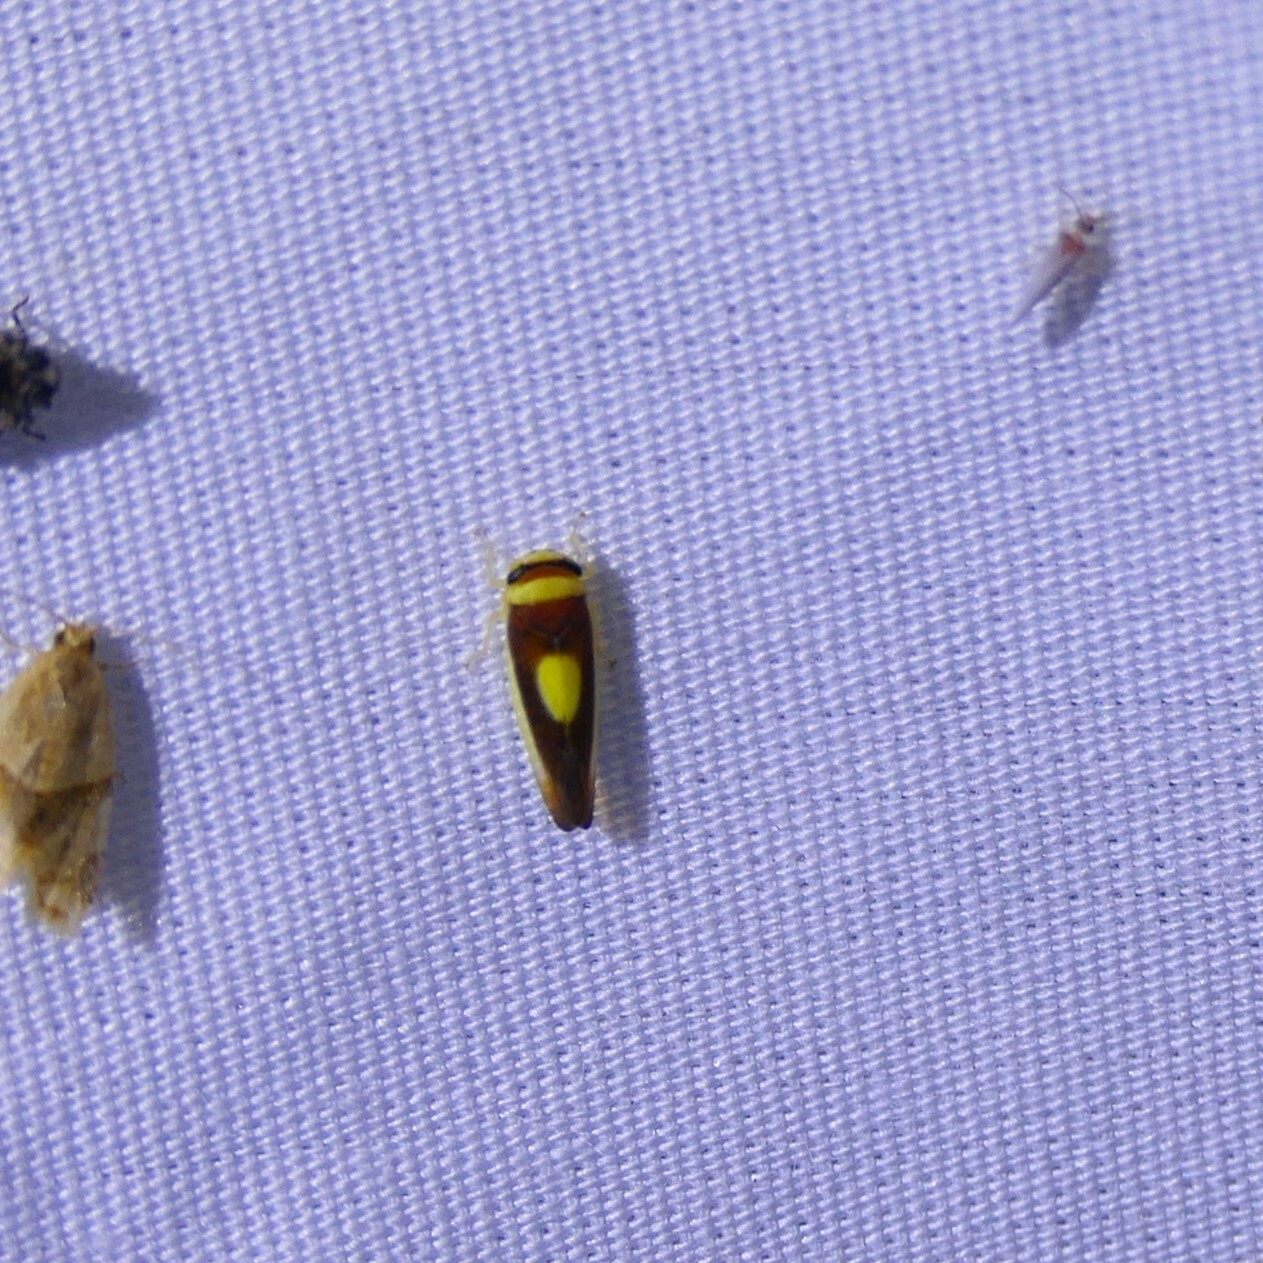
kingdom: Animalia
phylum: Arthropoda
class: Insecta
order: Hemiptera
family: Cicadellidae
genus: Colladonus
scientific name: Colladonus clitellarius
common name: The saddleback leafhopper
